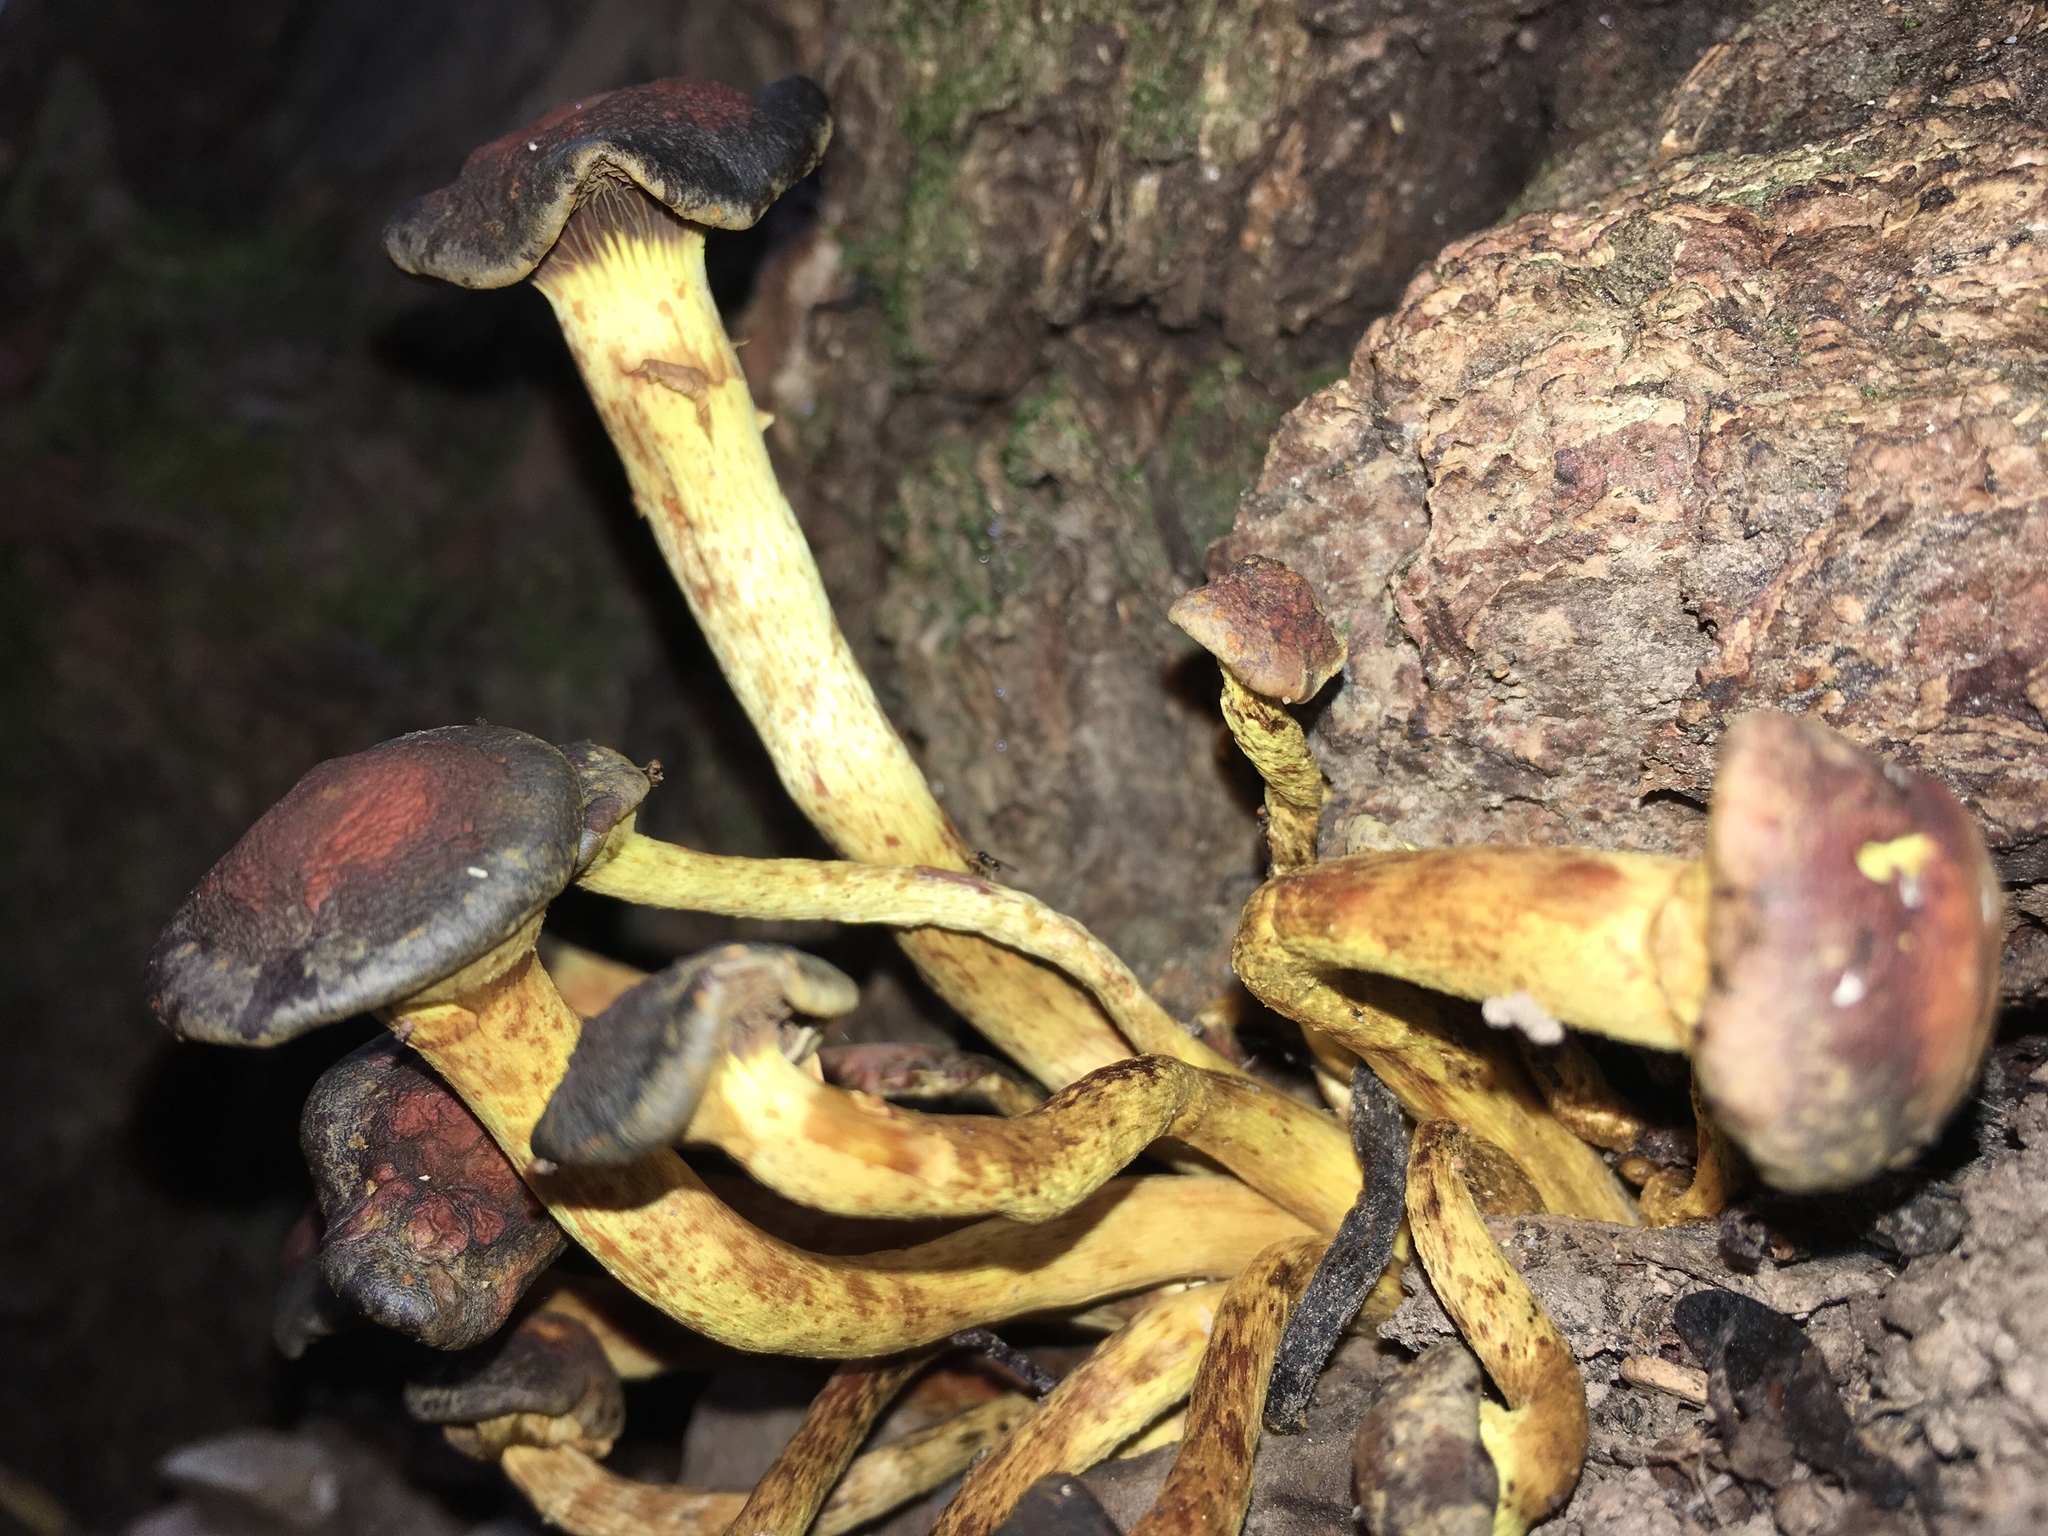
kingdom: Fungi
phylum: Basidiomycota
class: Agaricomycetes
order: Agaricales
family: Strophariaceae
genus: Hypholoma
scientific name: Hypholoma fasciculare
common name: Sulphur tuft
